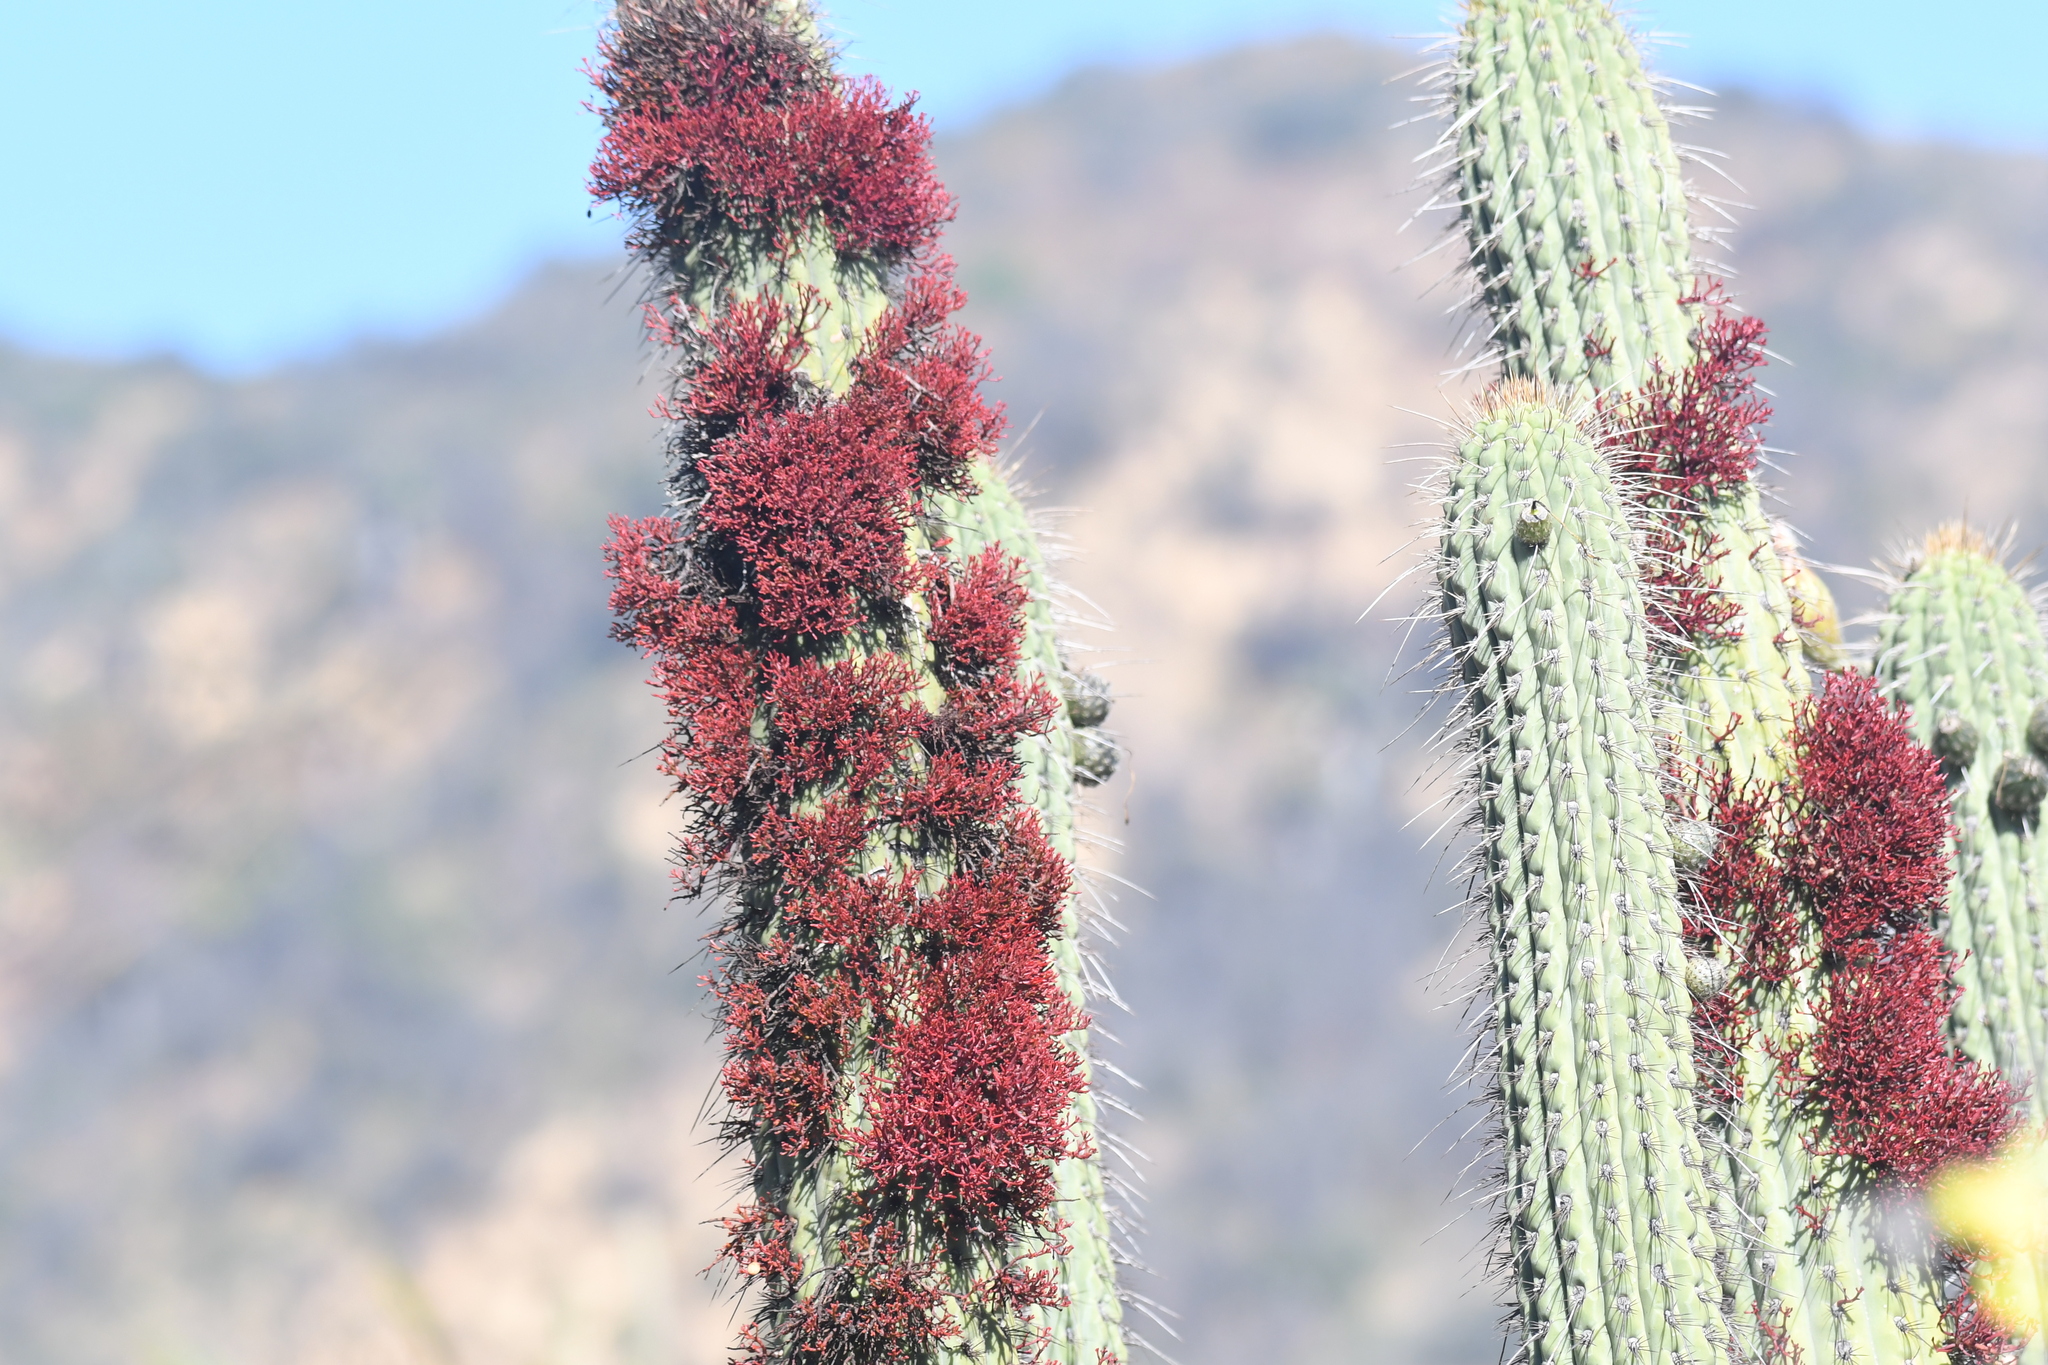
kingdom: Plantae
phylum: Tracheophyta
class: Magnoliopsida
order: Caryophyllales
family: Cactaceae
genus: Leucostele
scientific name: Leucostele chiloensis
